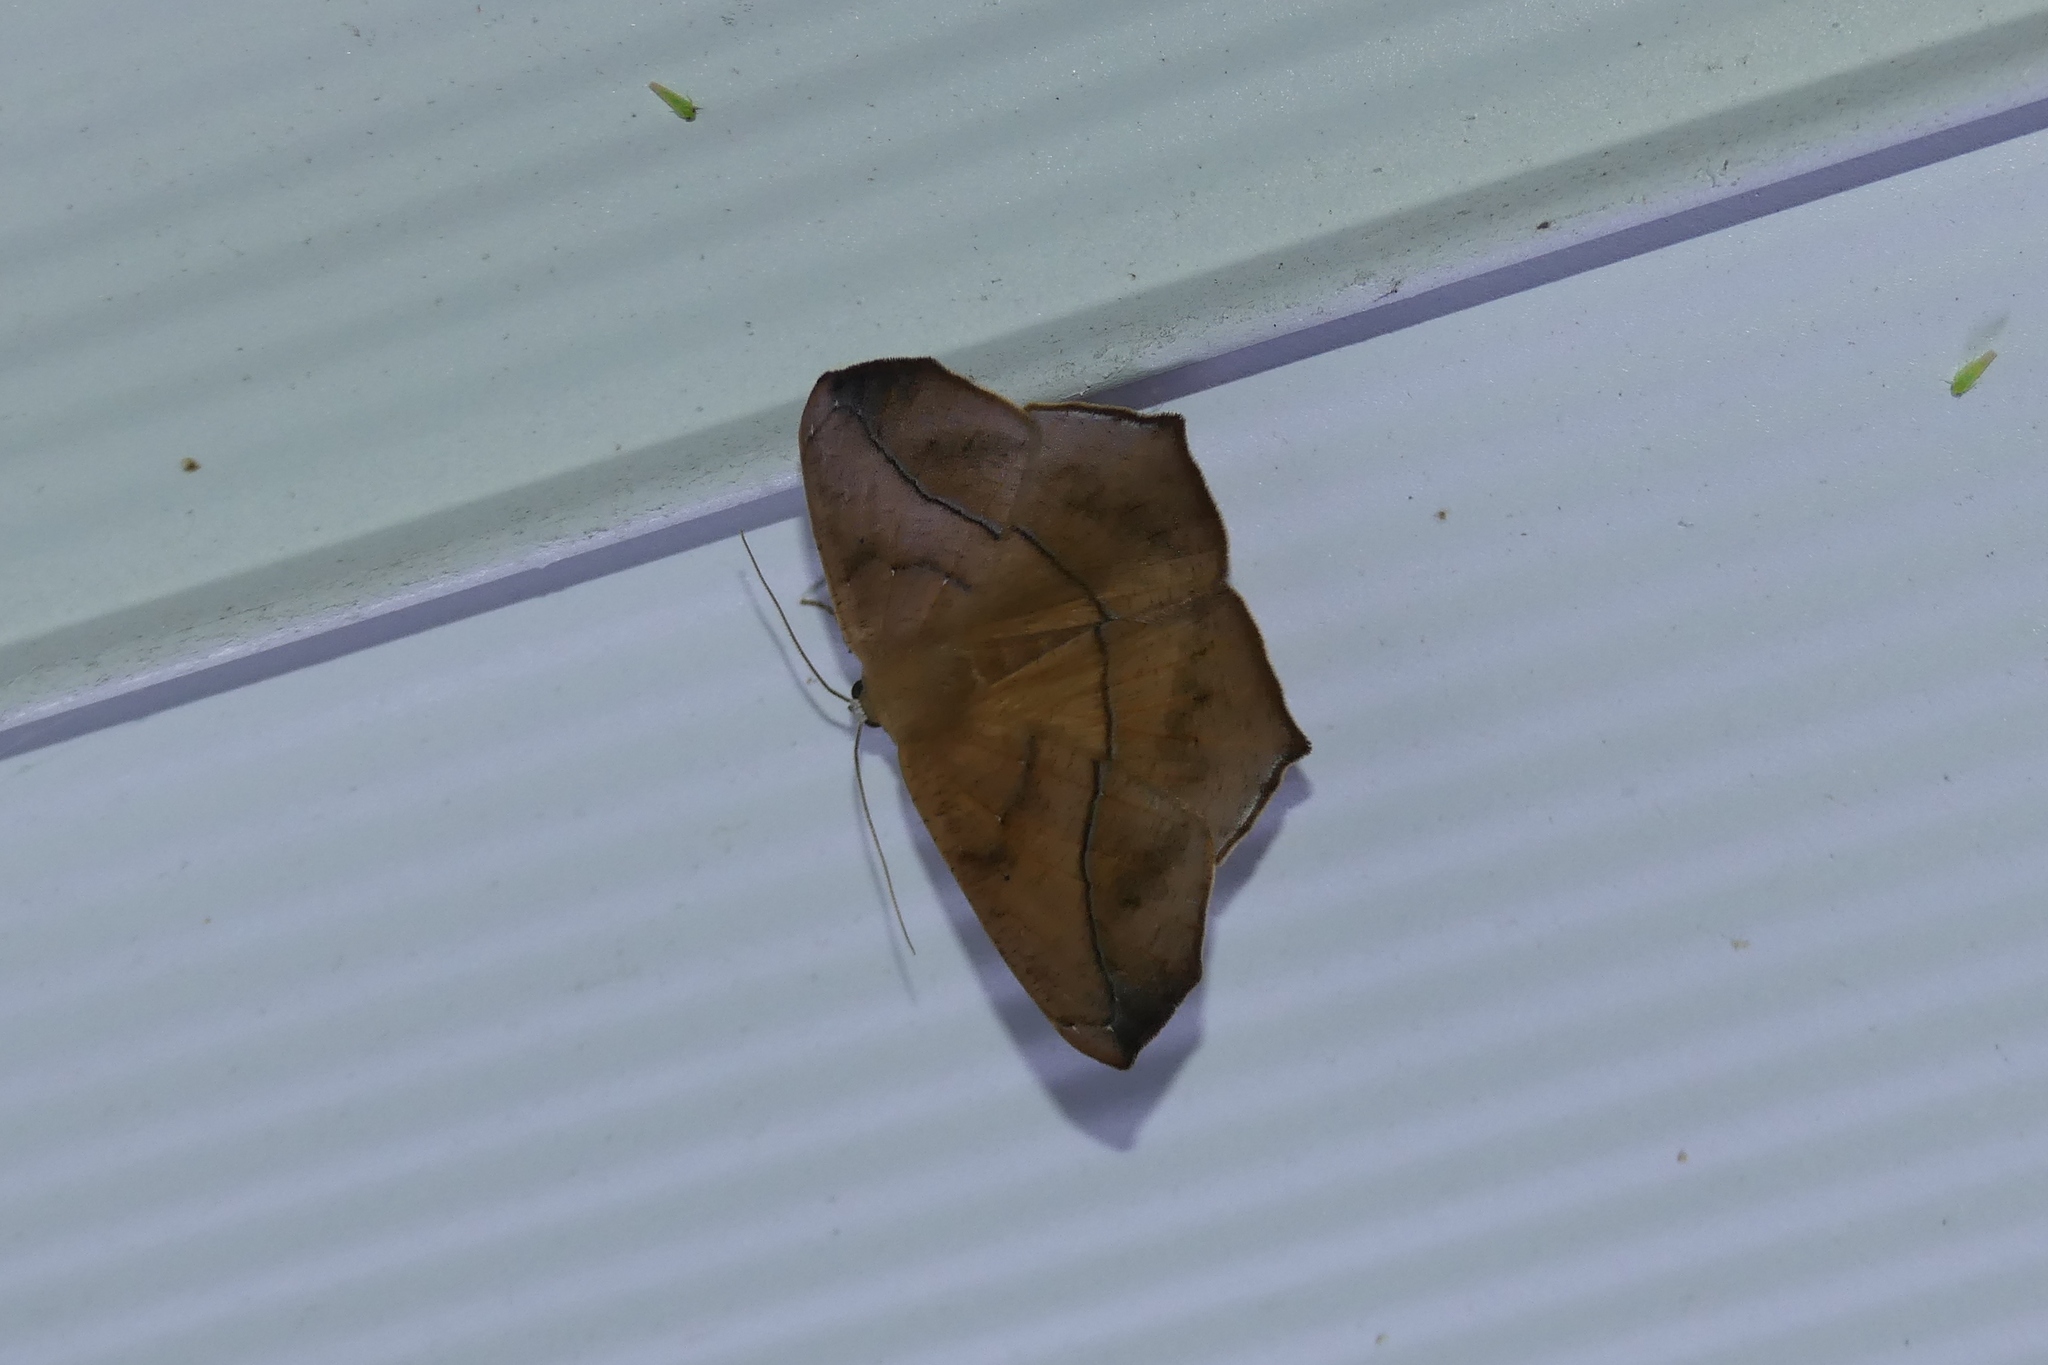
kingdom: Animalia
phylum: Arthropoda
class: Insecta
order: Lepidoptera
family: Geometridae
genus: Prochoerodes
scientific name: Prochoerodes lineola
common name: Large maple spanworm
